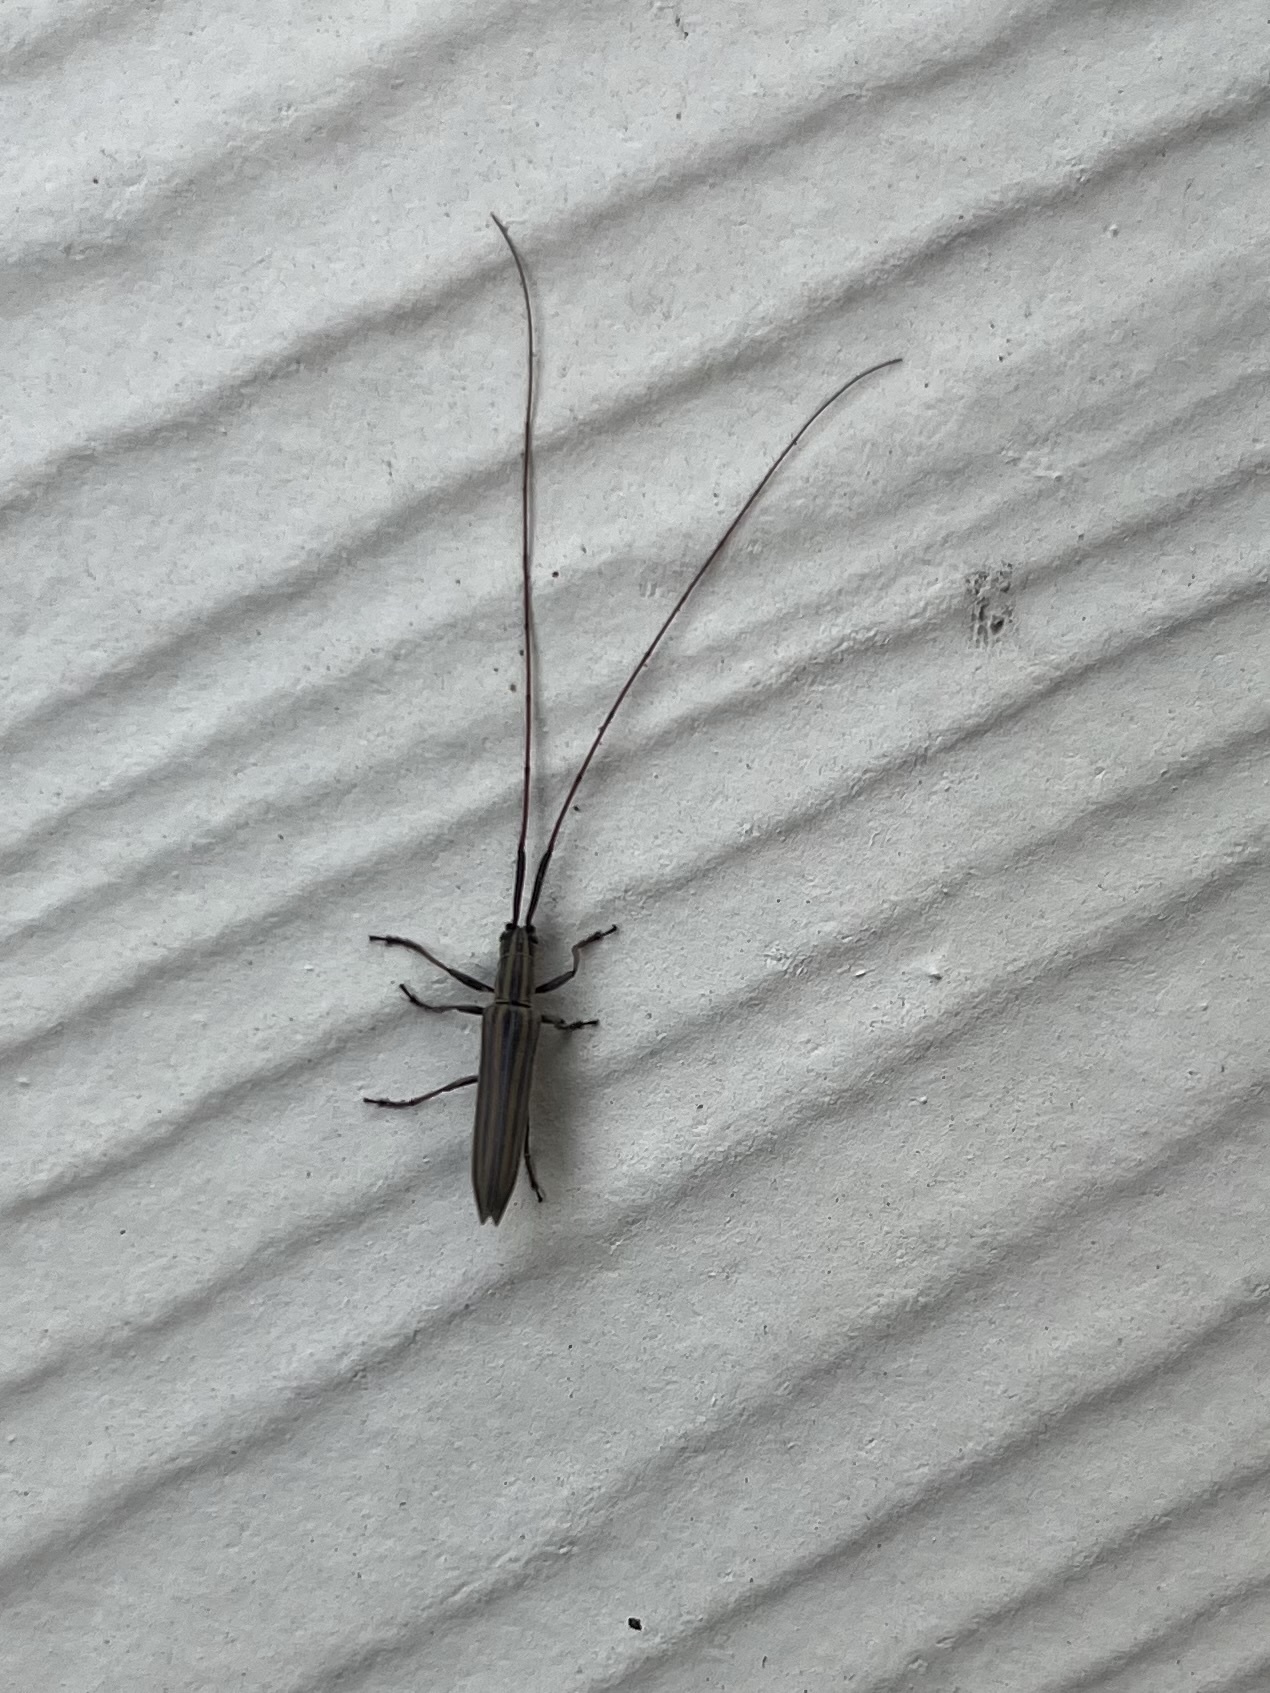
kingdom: Animalia
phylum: Arthropoda
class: Insecta
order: Coleoptera
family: Cerambycidae
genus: Hippopsis
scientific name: Hippopsis
